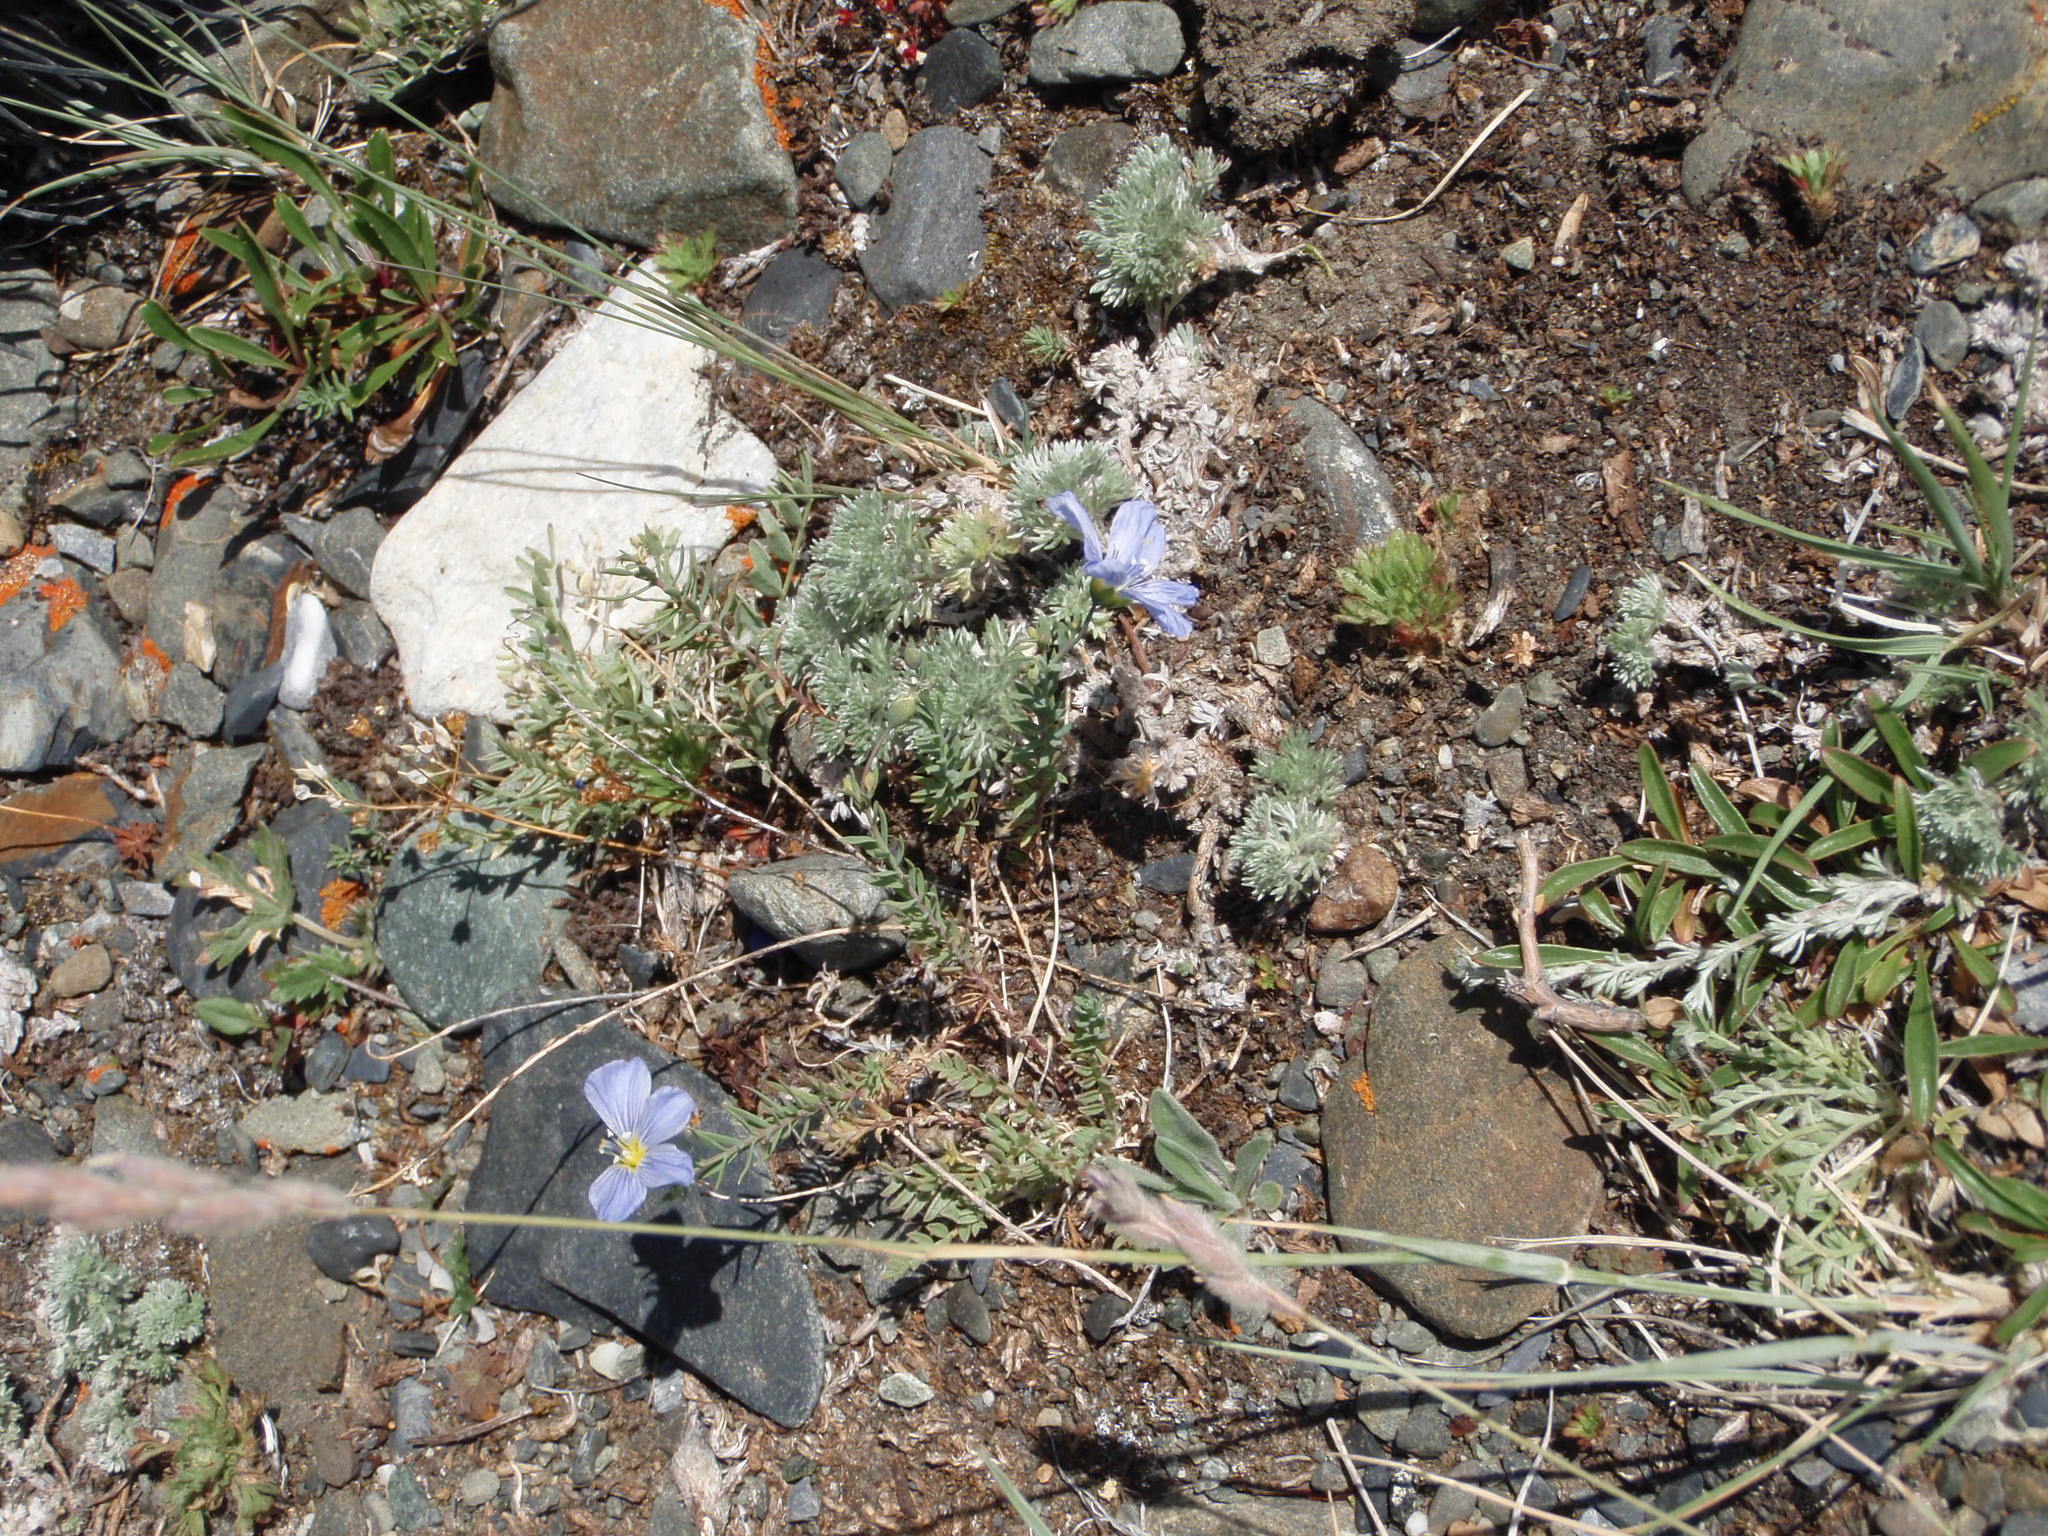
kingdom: Plantae
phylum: Tracheophyta
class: Magnoliopsida
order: Malpighiales
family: Linaceae
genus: Linum
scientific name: Linum lewisii
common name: Prairie flax
